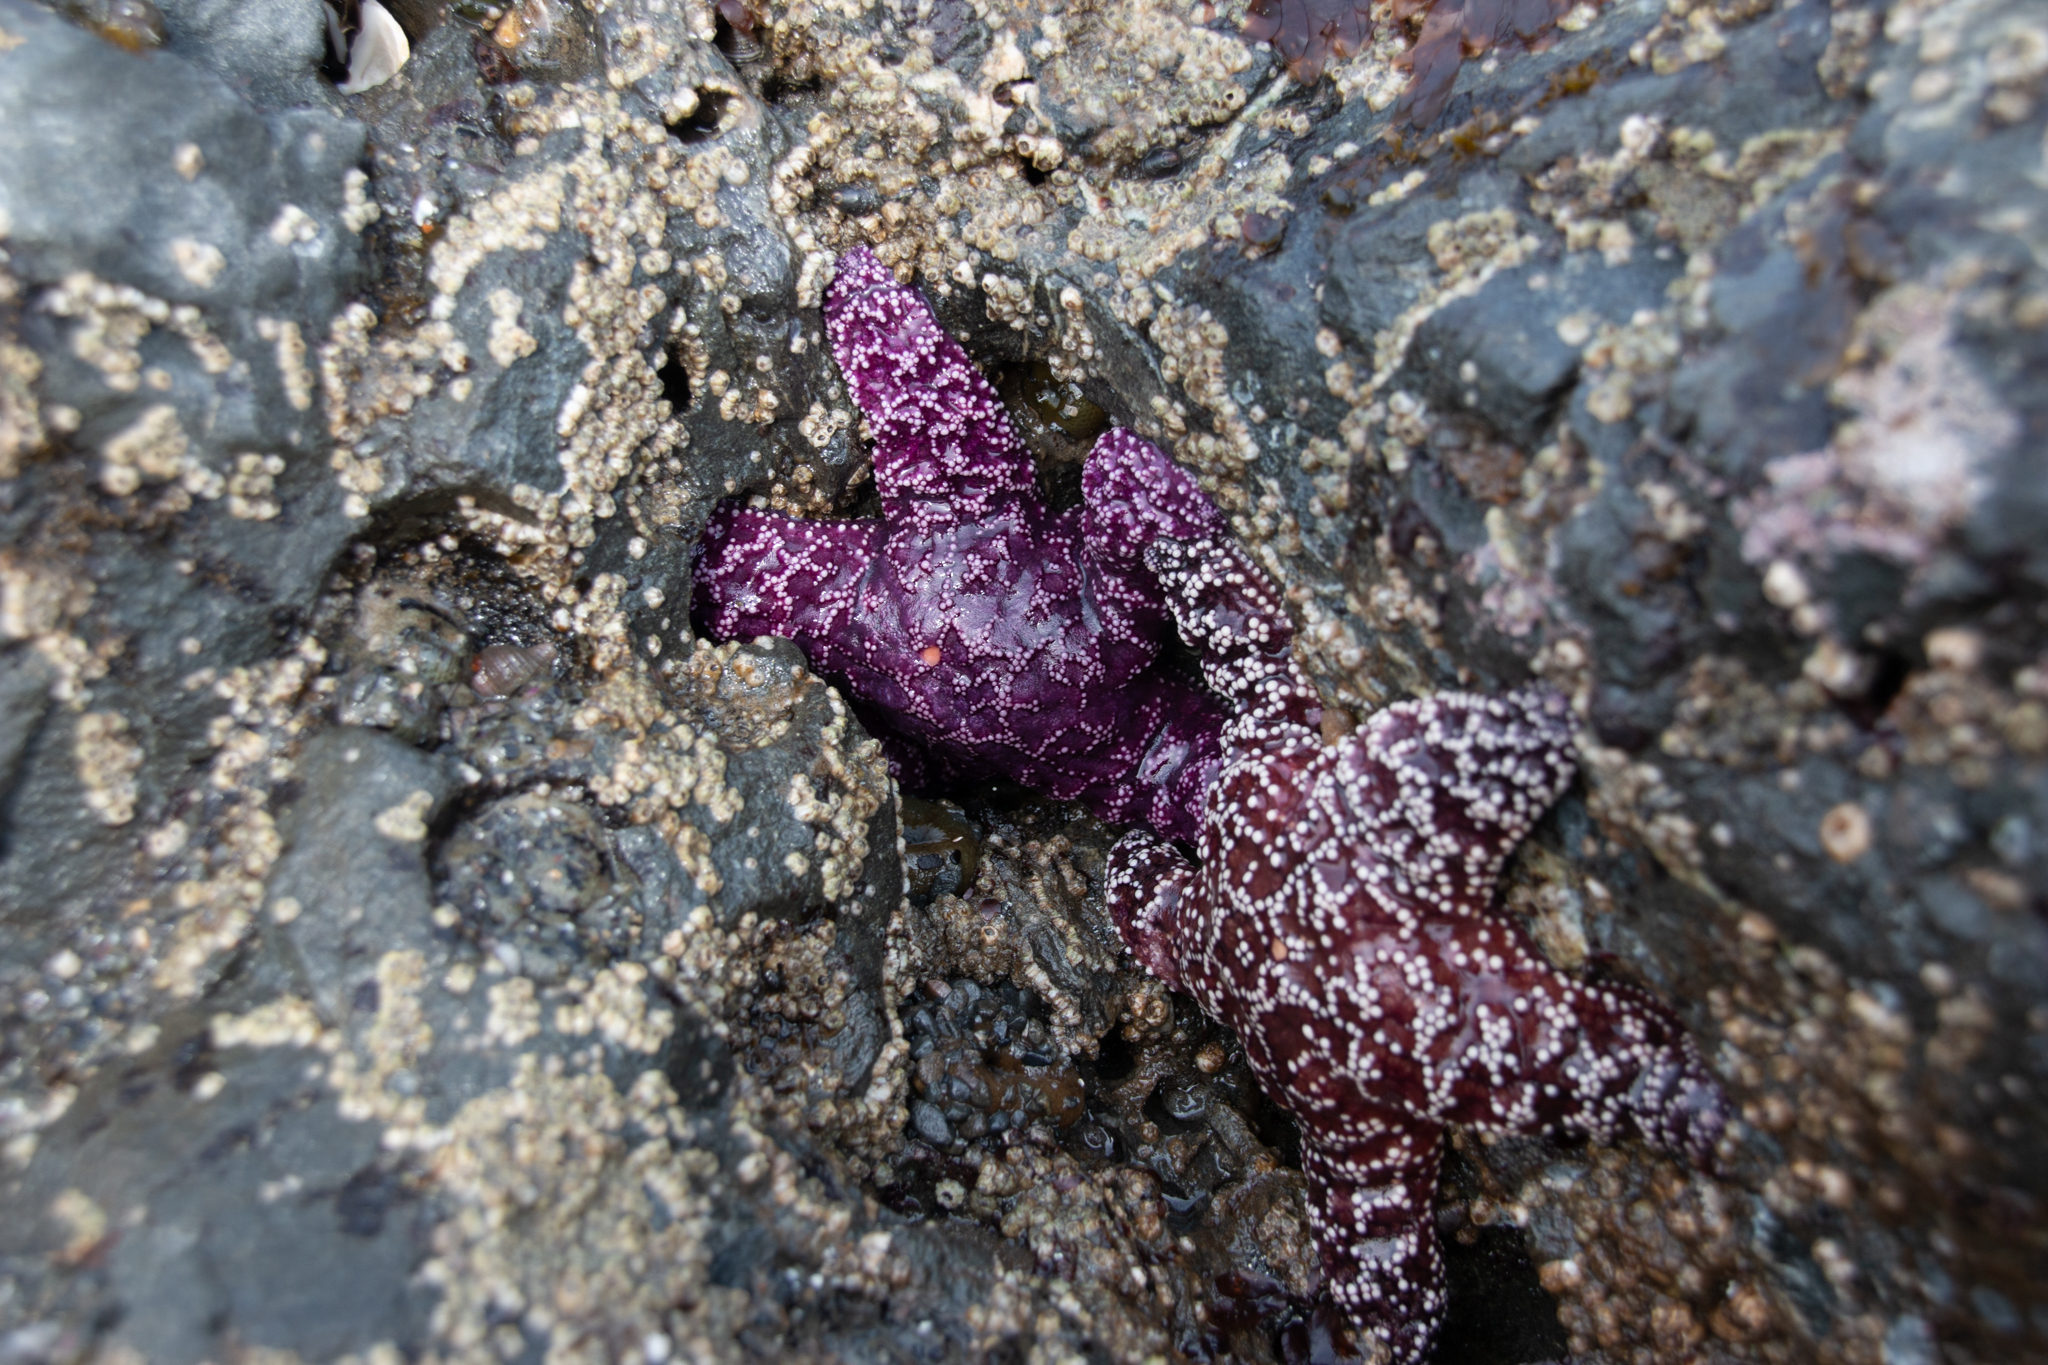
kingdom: Animalia
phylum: Echinodermata
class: Asteroidea
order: Forcipulatida
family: Asteriidae
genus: Pisaster
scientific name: Pisaster ochraceus
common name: Ochre stars
